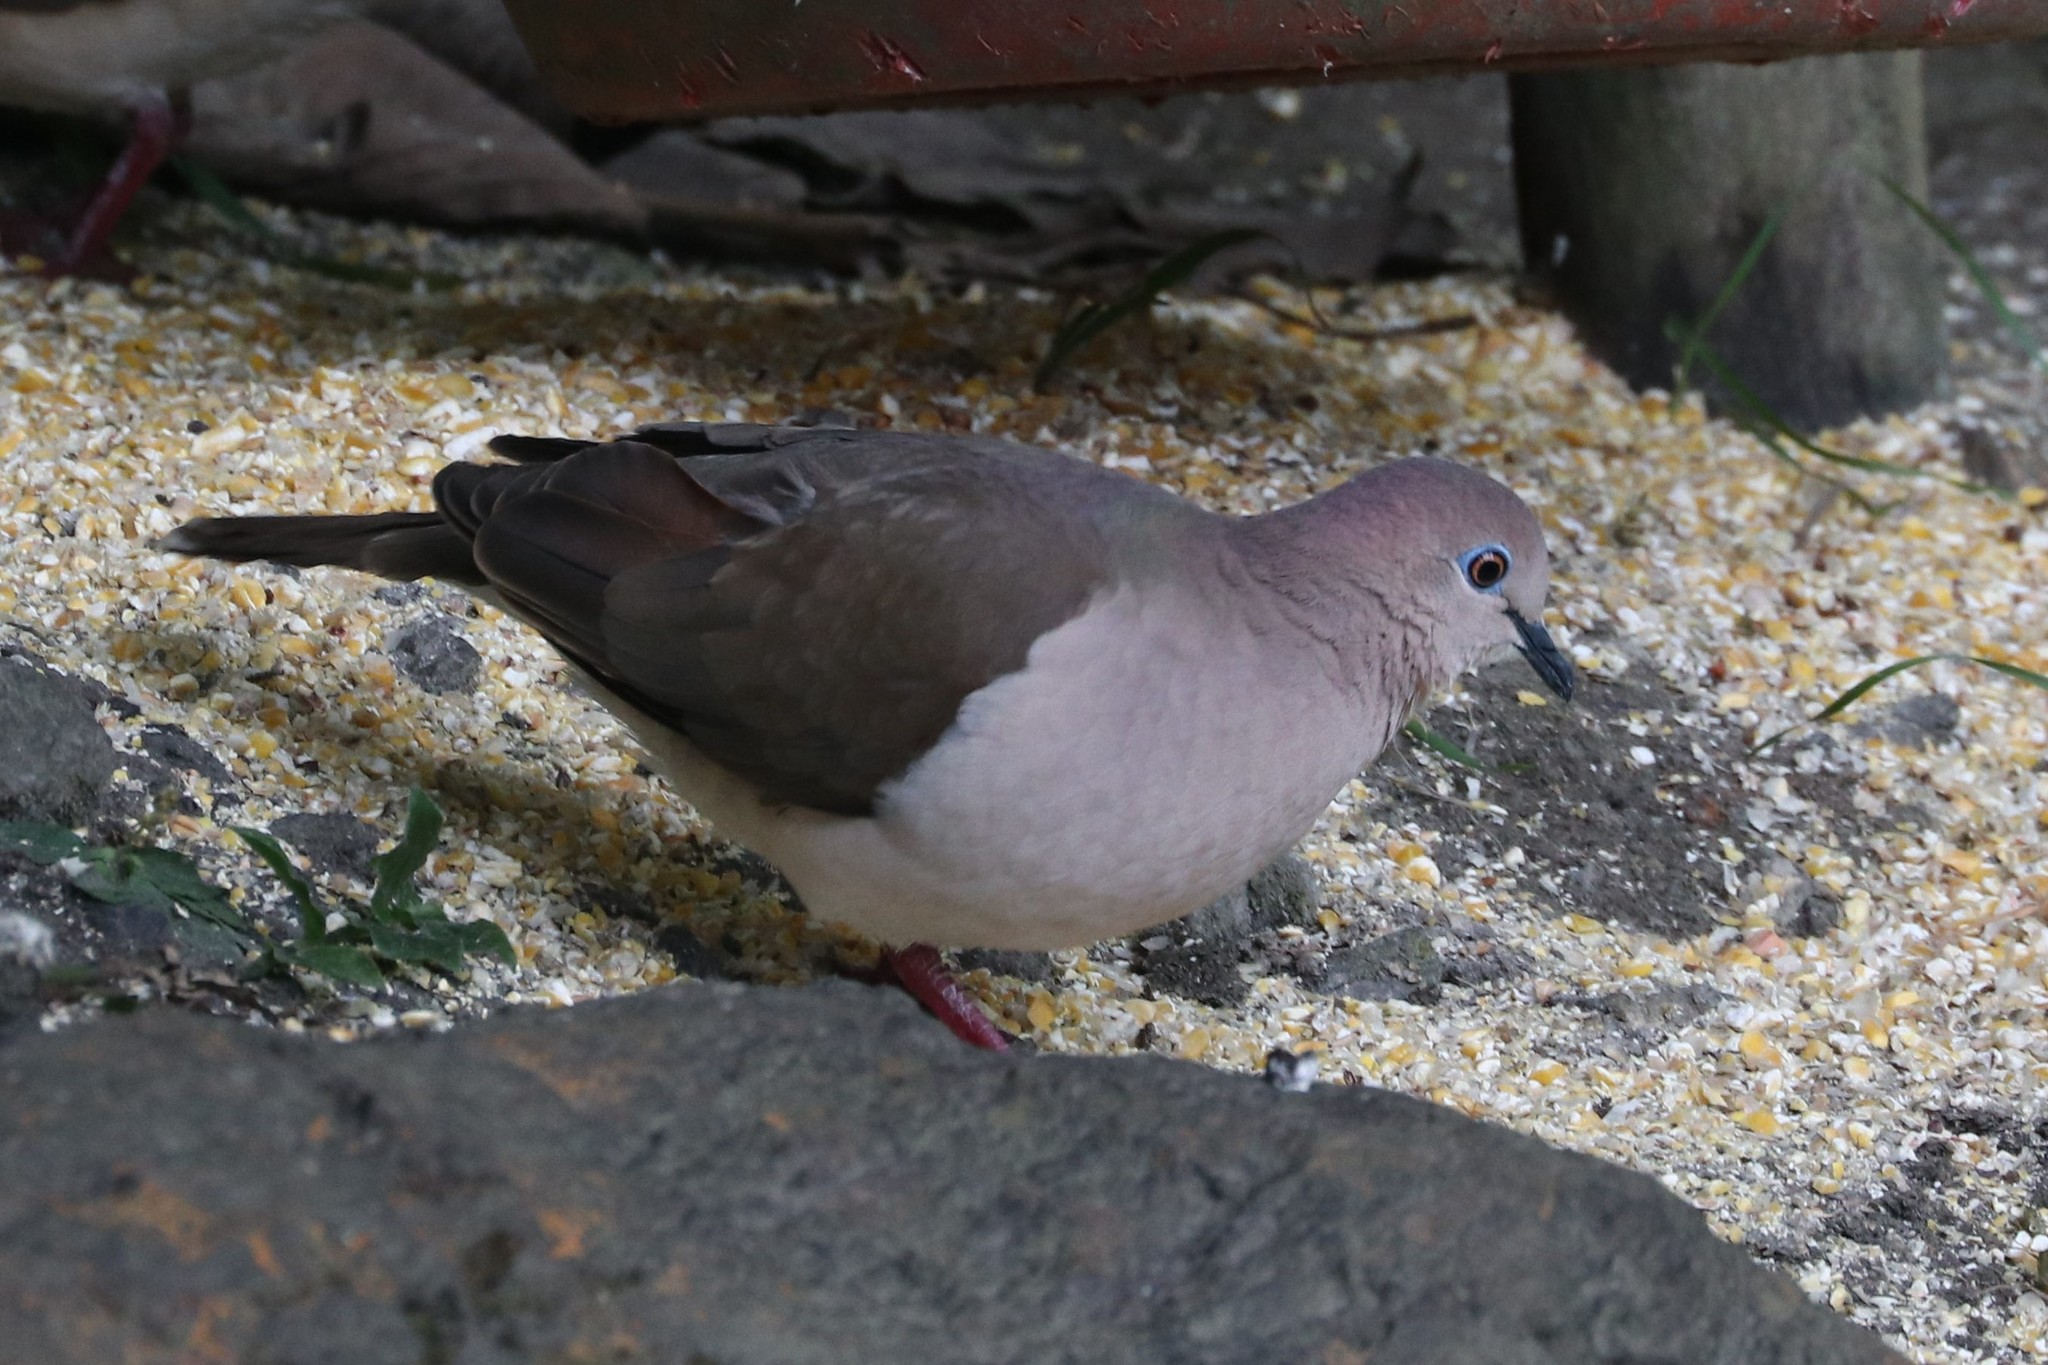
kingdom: Animalia
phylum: Chordata
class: Aves
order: Columbiformes
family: Columbidae
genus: Leptotila
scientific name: Leptotila verreauxi
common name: White-tipped dove
